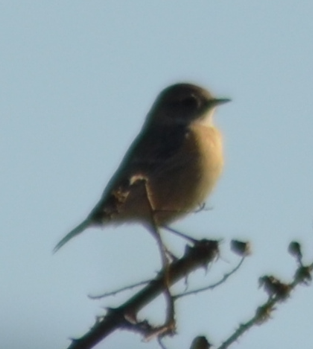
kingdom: Animalia
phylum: Chordata
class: Aves
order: Passeriformes
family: Muscicapidae
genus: Saxicola
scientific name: Saxicola rubicola
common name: European stonechat
